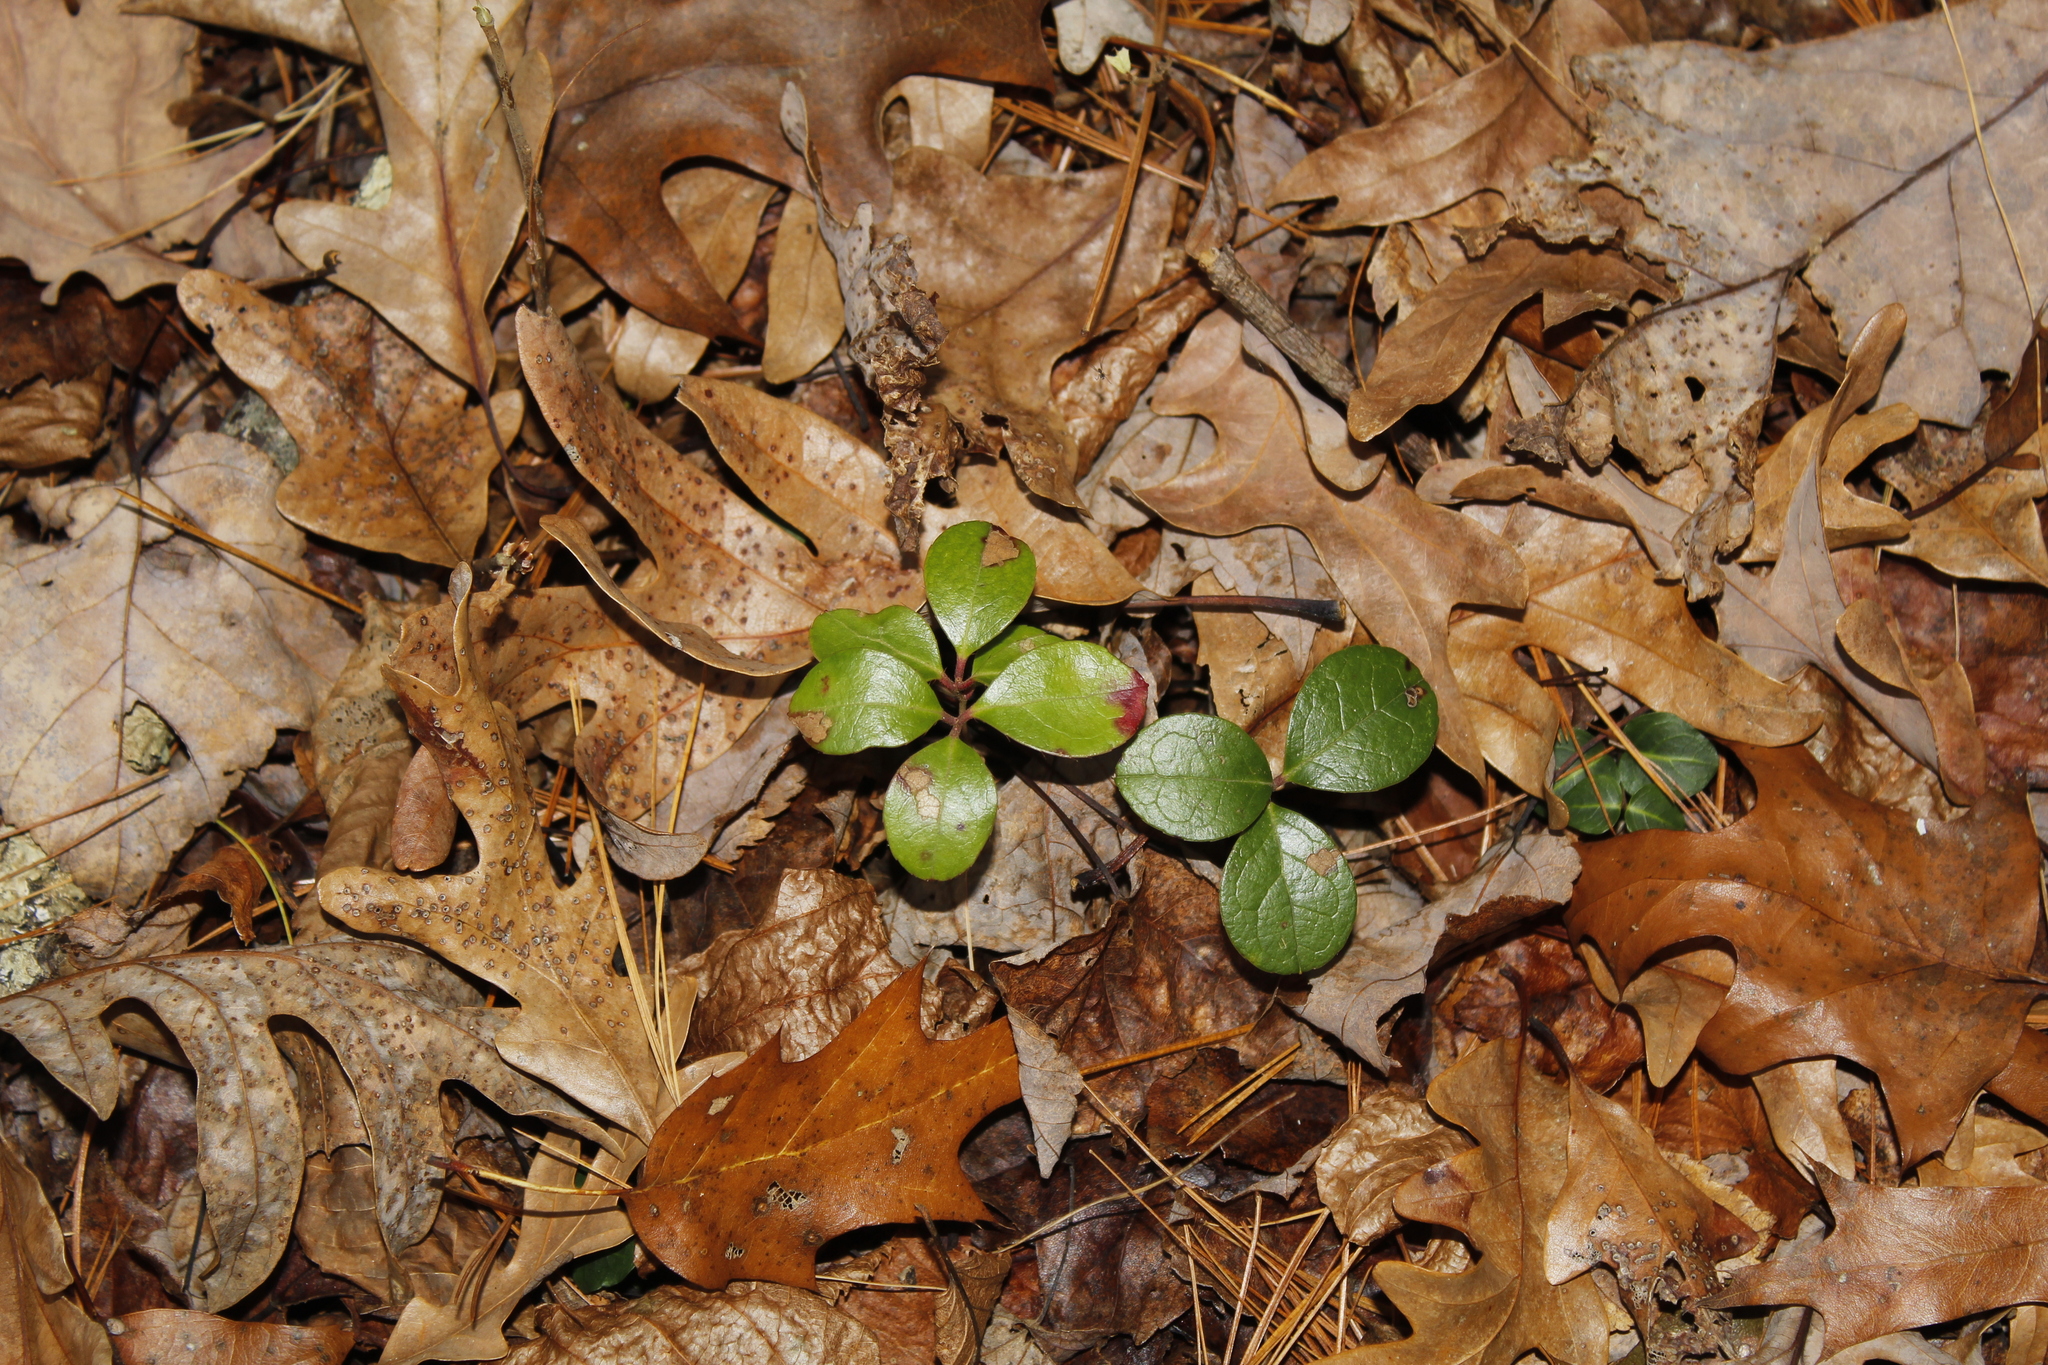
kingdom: Plantae
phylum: Tracheophyta
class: Magnoliopsida
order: Ericales
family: Ericaceae
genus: Gaultheria
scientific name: Gaultheria procumbens
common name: Checkerberry
